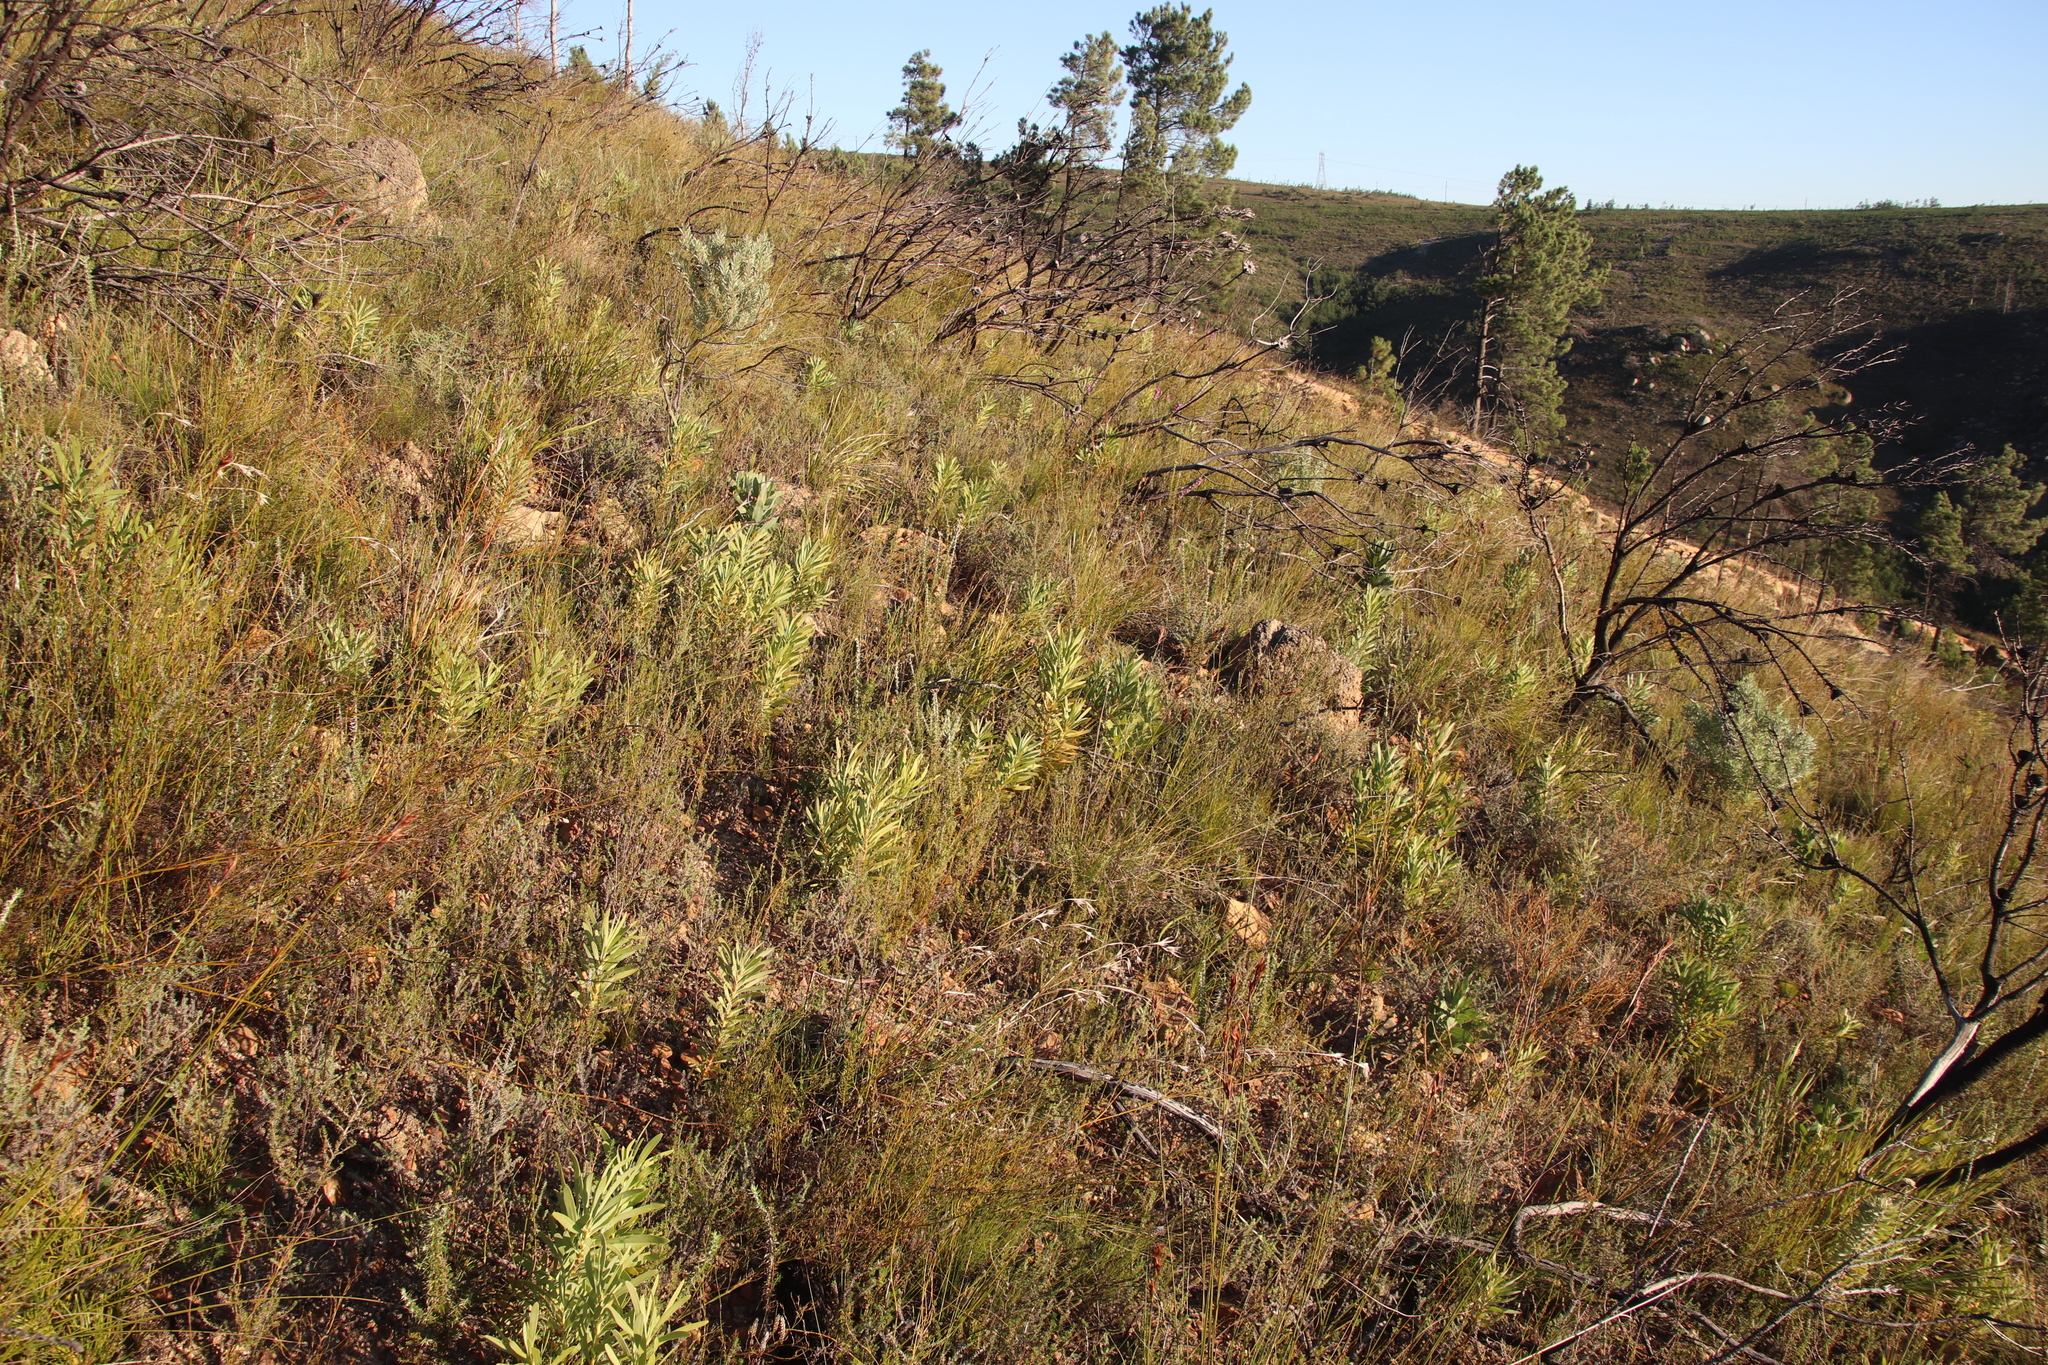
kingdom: Plantae
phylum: Tracheophyta
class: Magnoliopsida
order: Proteales
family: Proteaceae
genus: Protea
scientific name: Protea repens
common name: Sugarbush
